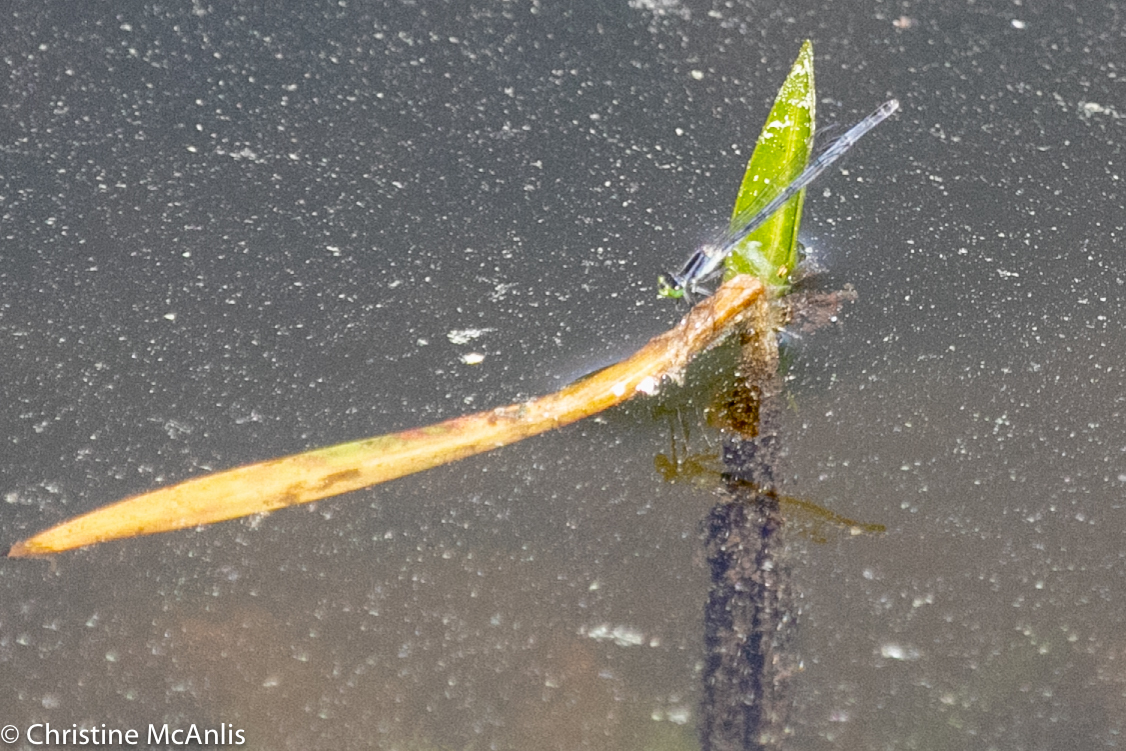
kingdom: Animalia
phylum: Arthropoda
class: Insecta
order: Odonata
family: Coenagrionidae
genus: Ischnura
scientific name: Ischnura verticalis
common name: Eastern forktail
